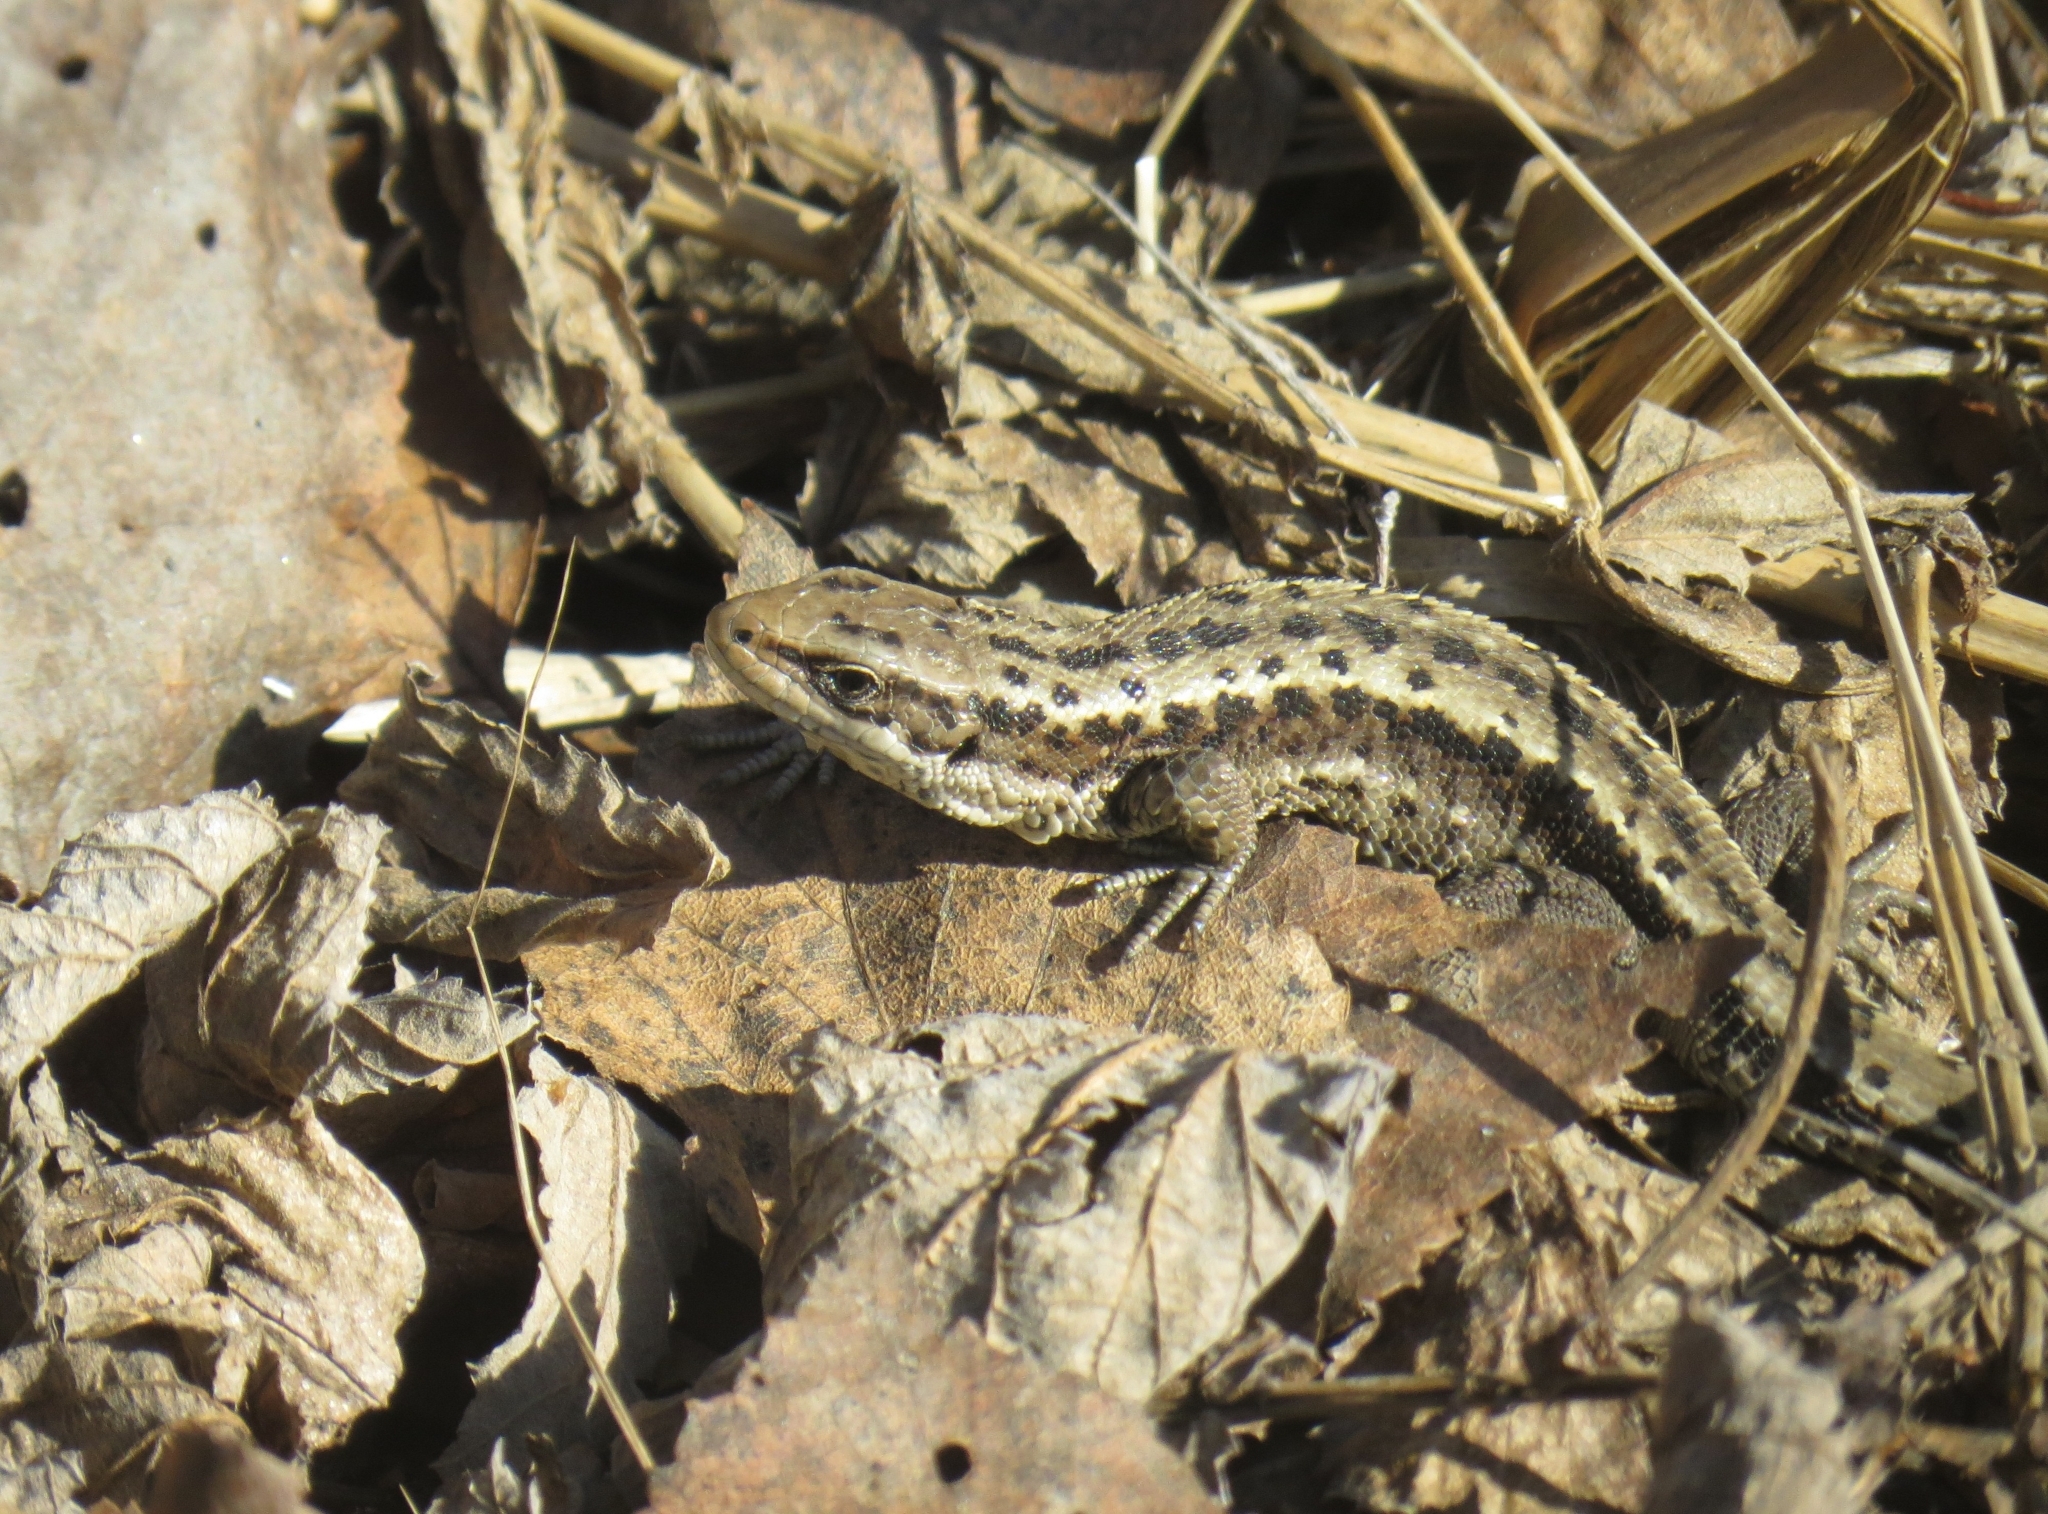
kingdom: Animalia
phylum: Chordata
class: Squamata
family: Lacertidae
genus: Zootoca
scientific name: Zootoca vivipara
